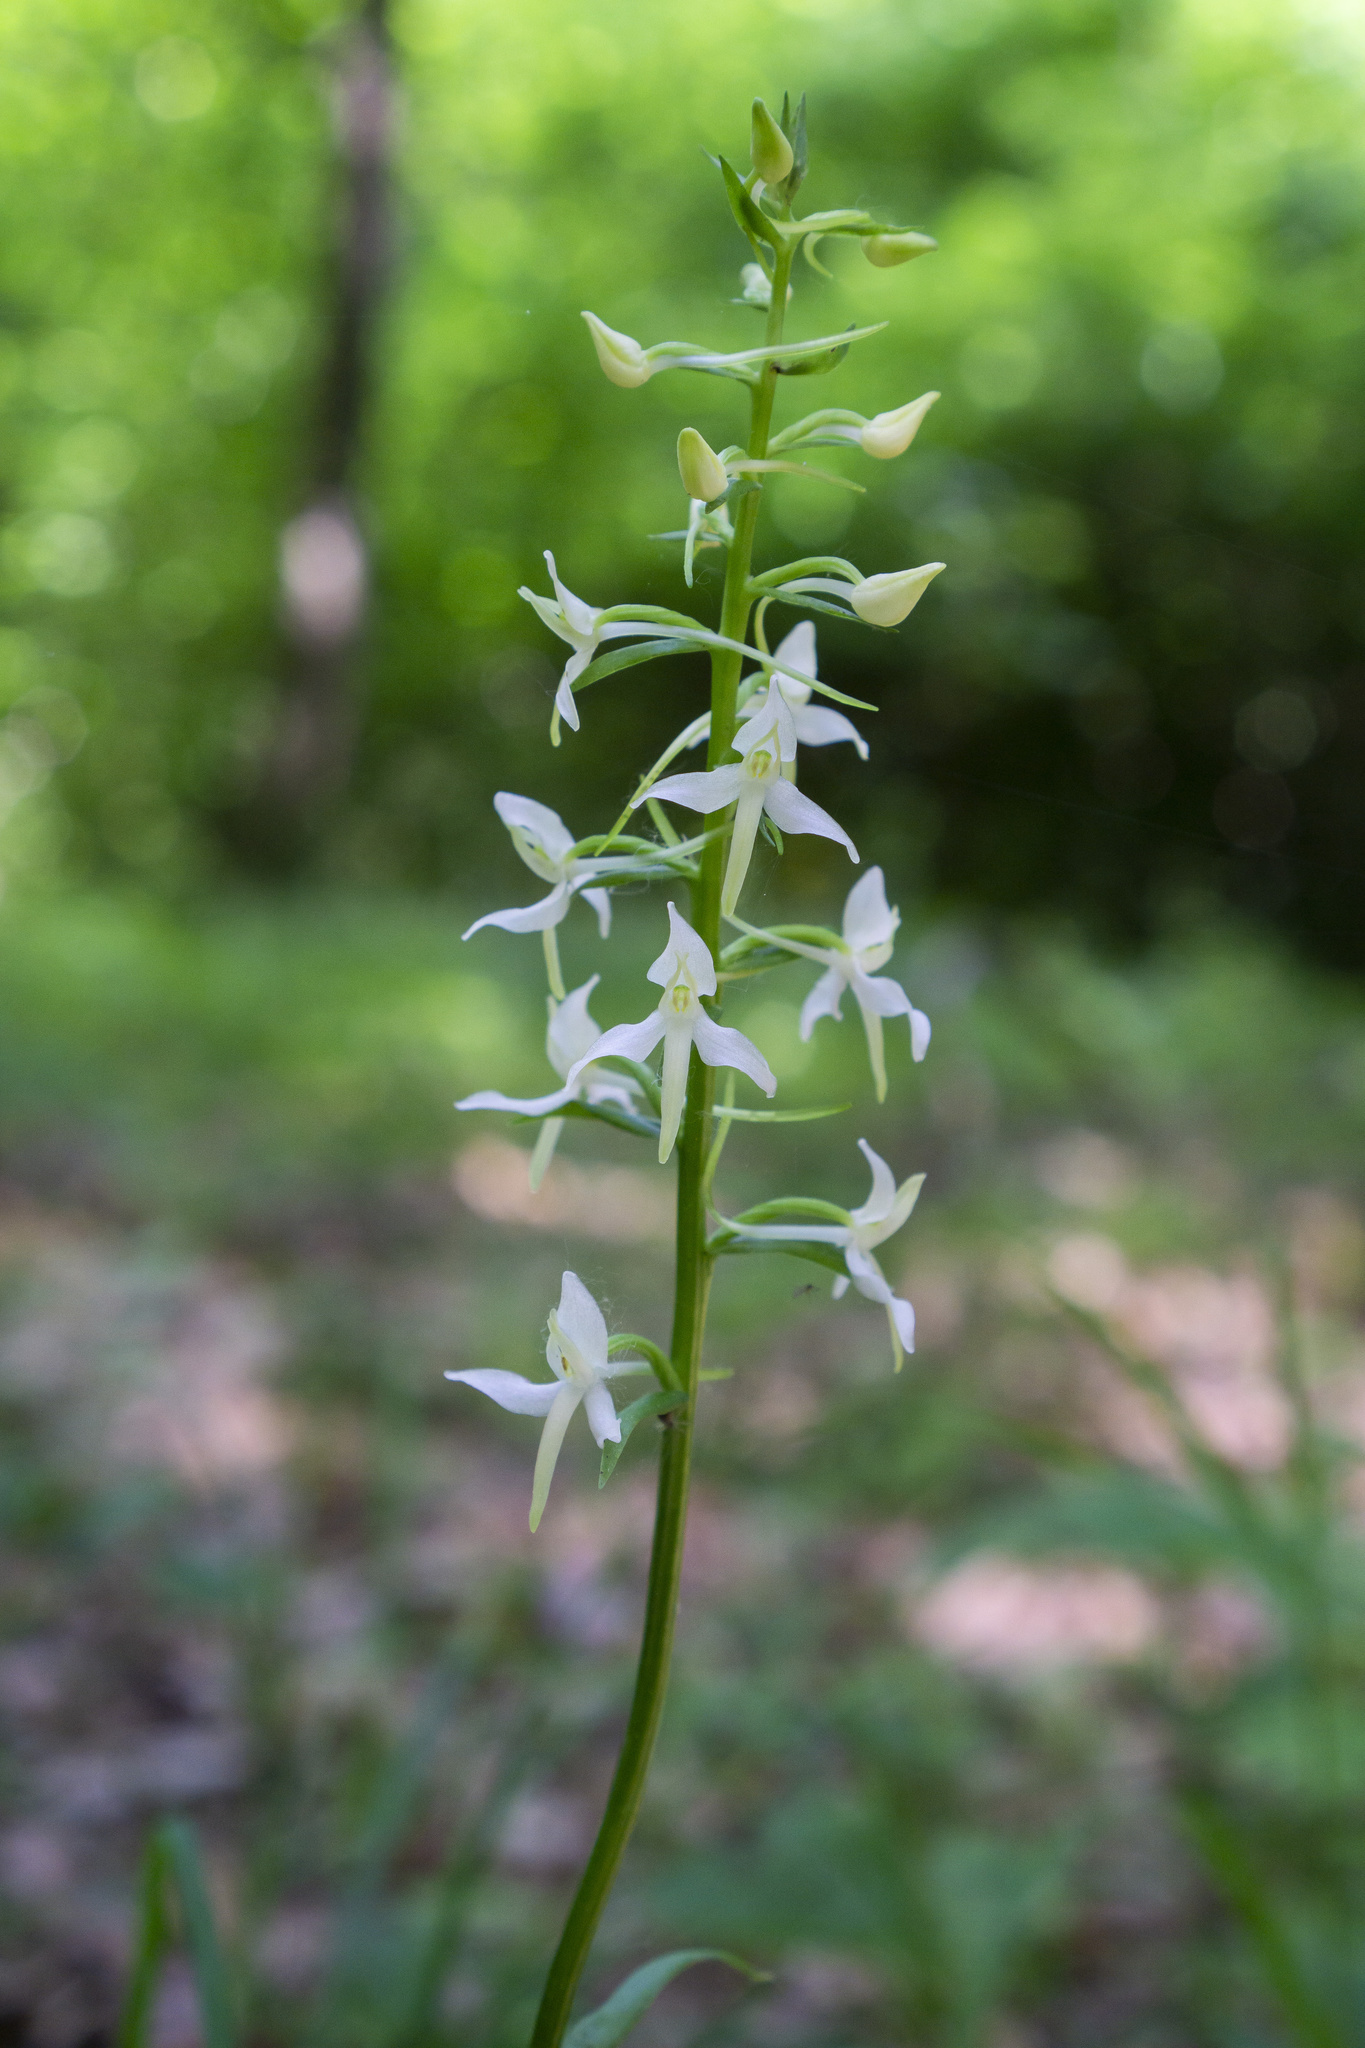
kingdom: Plantae
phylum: Tracheophyta
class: Liliopsida
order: Asparagales
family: Orchidaceae
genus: Platanthera
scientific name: Platanthera bifolia
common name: Lesser butterfly-orchid
